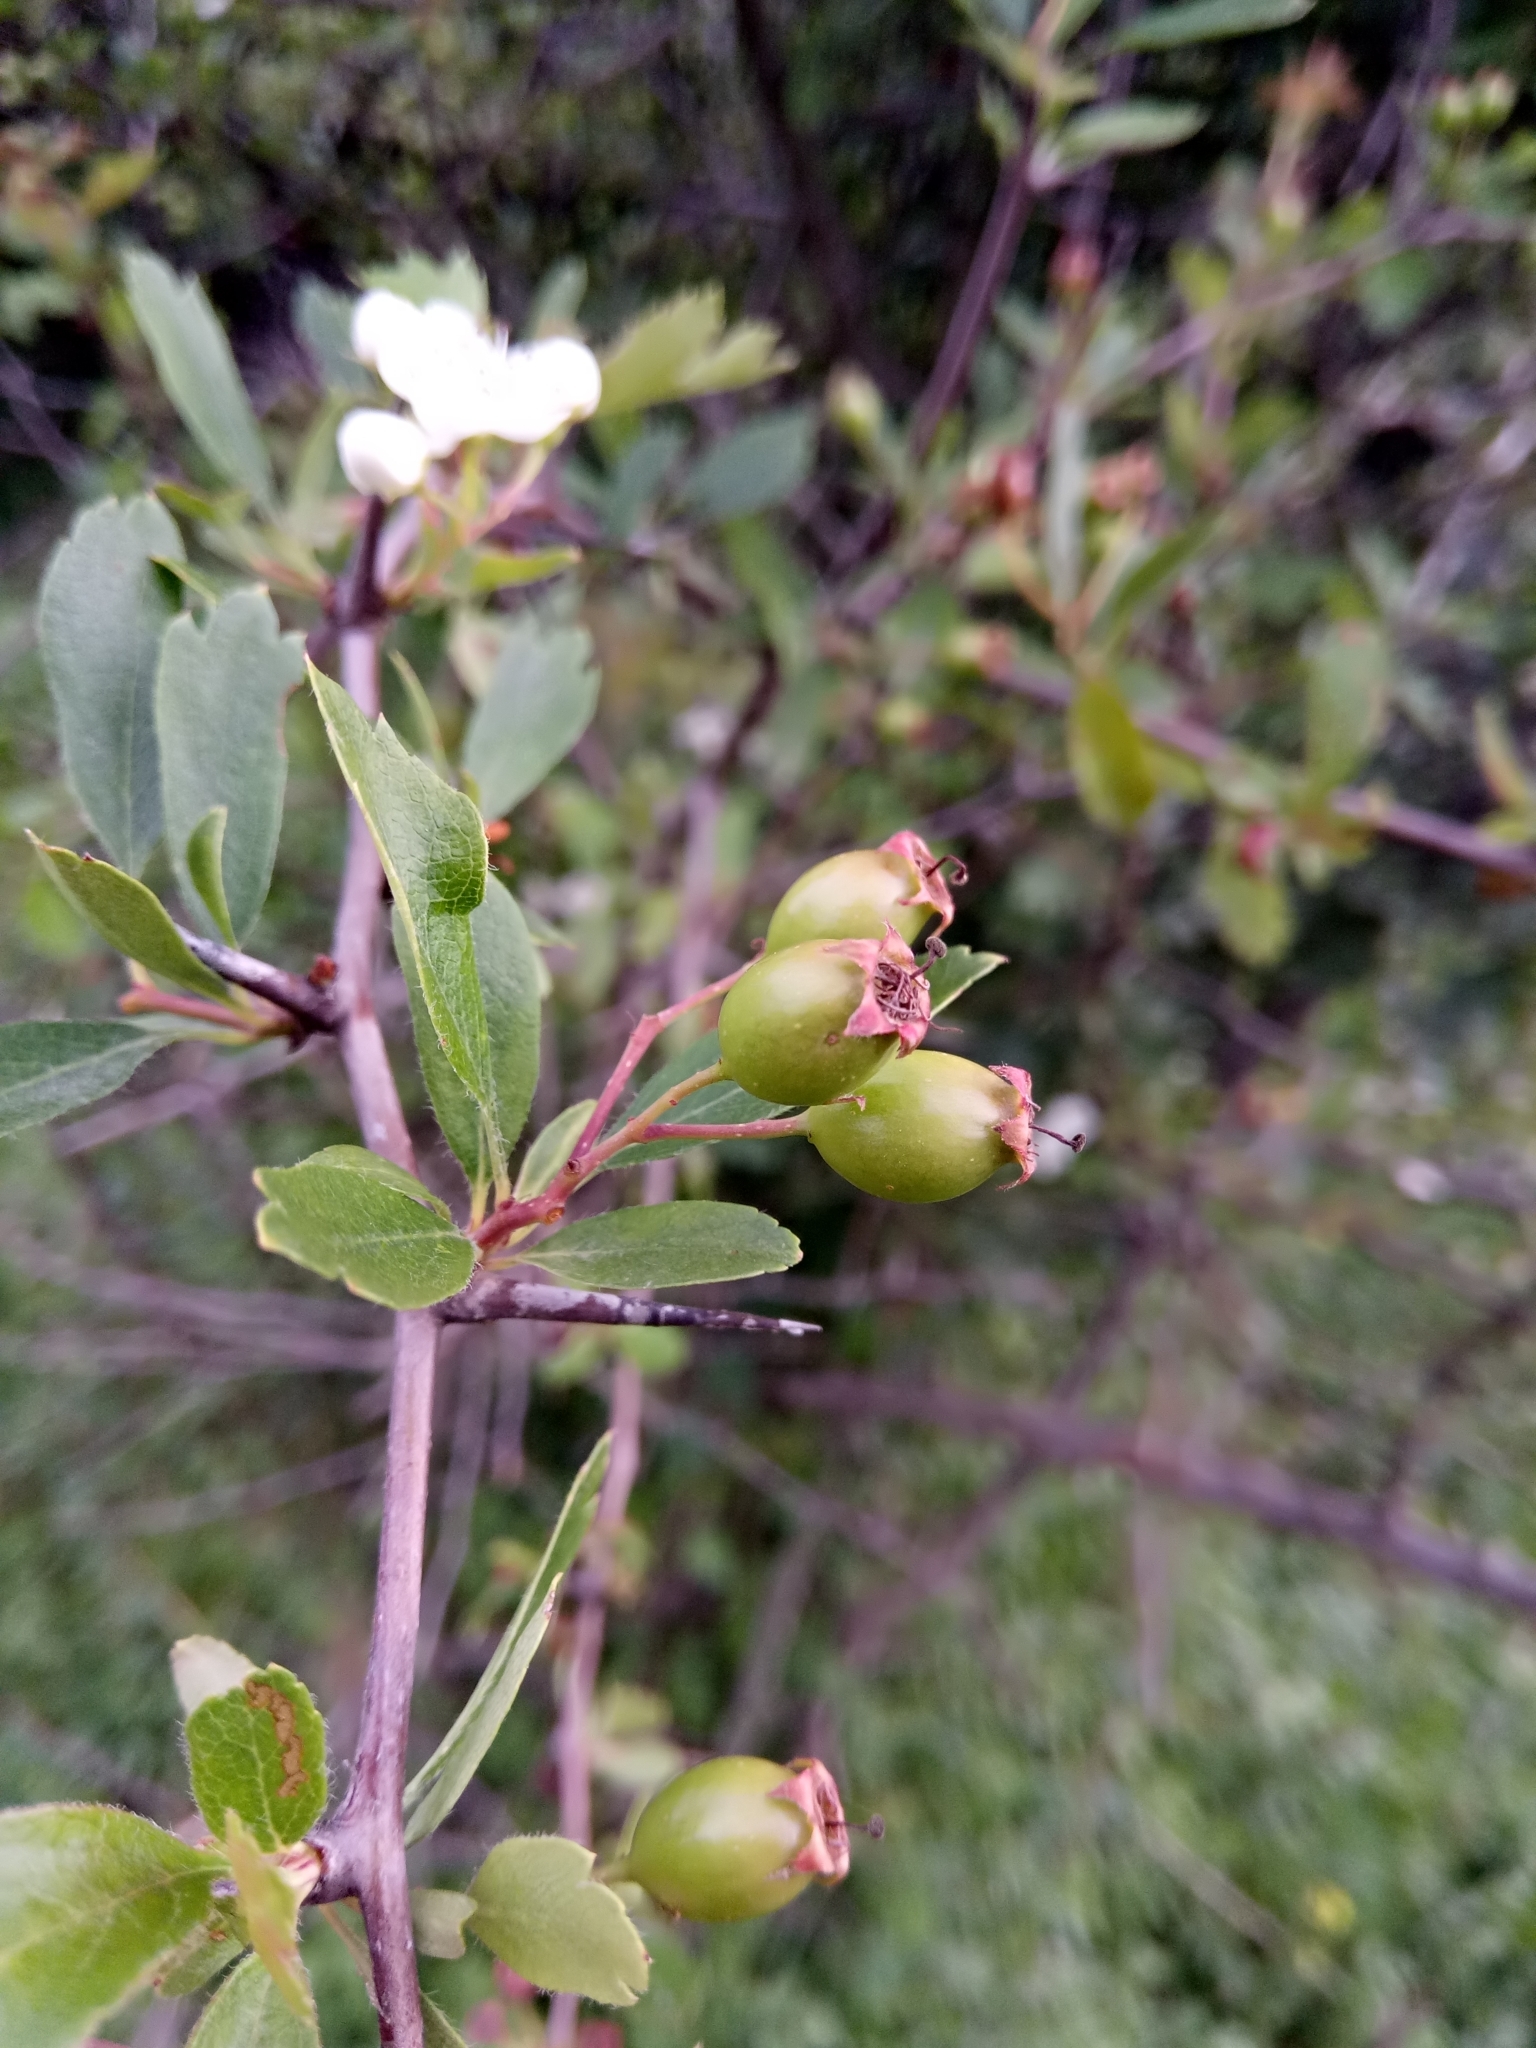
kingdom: Plantae
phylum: Tracheophyta
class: Magnoliopsida
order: Rosales
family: Rosaceae
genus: Crataegus
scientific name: Crataegus monogyna
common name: Hawthorn
